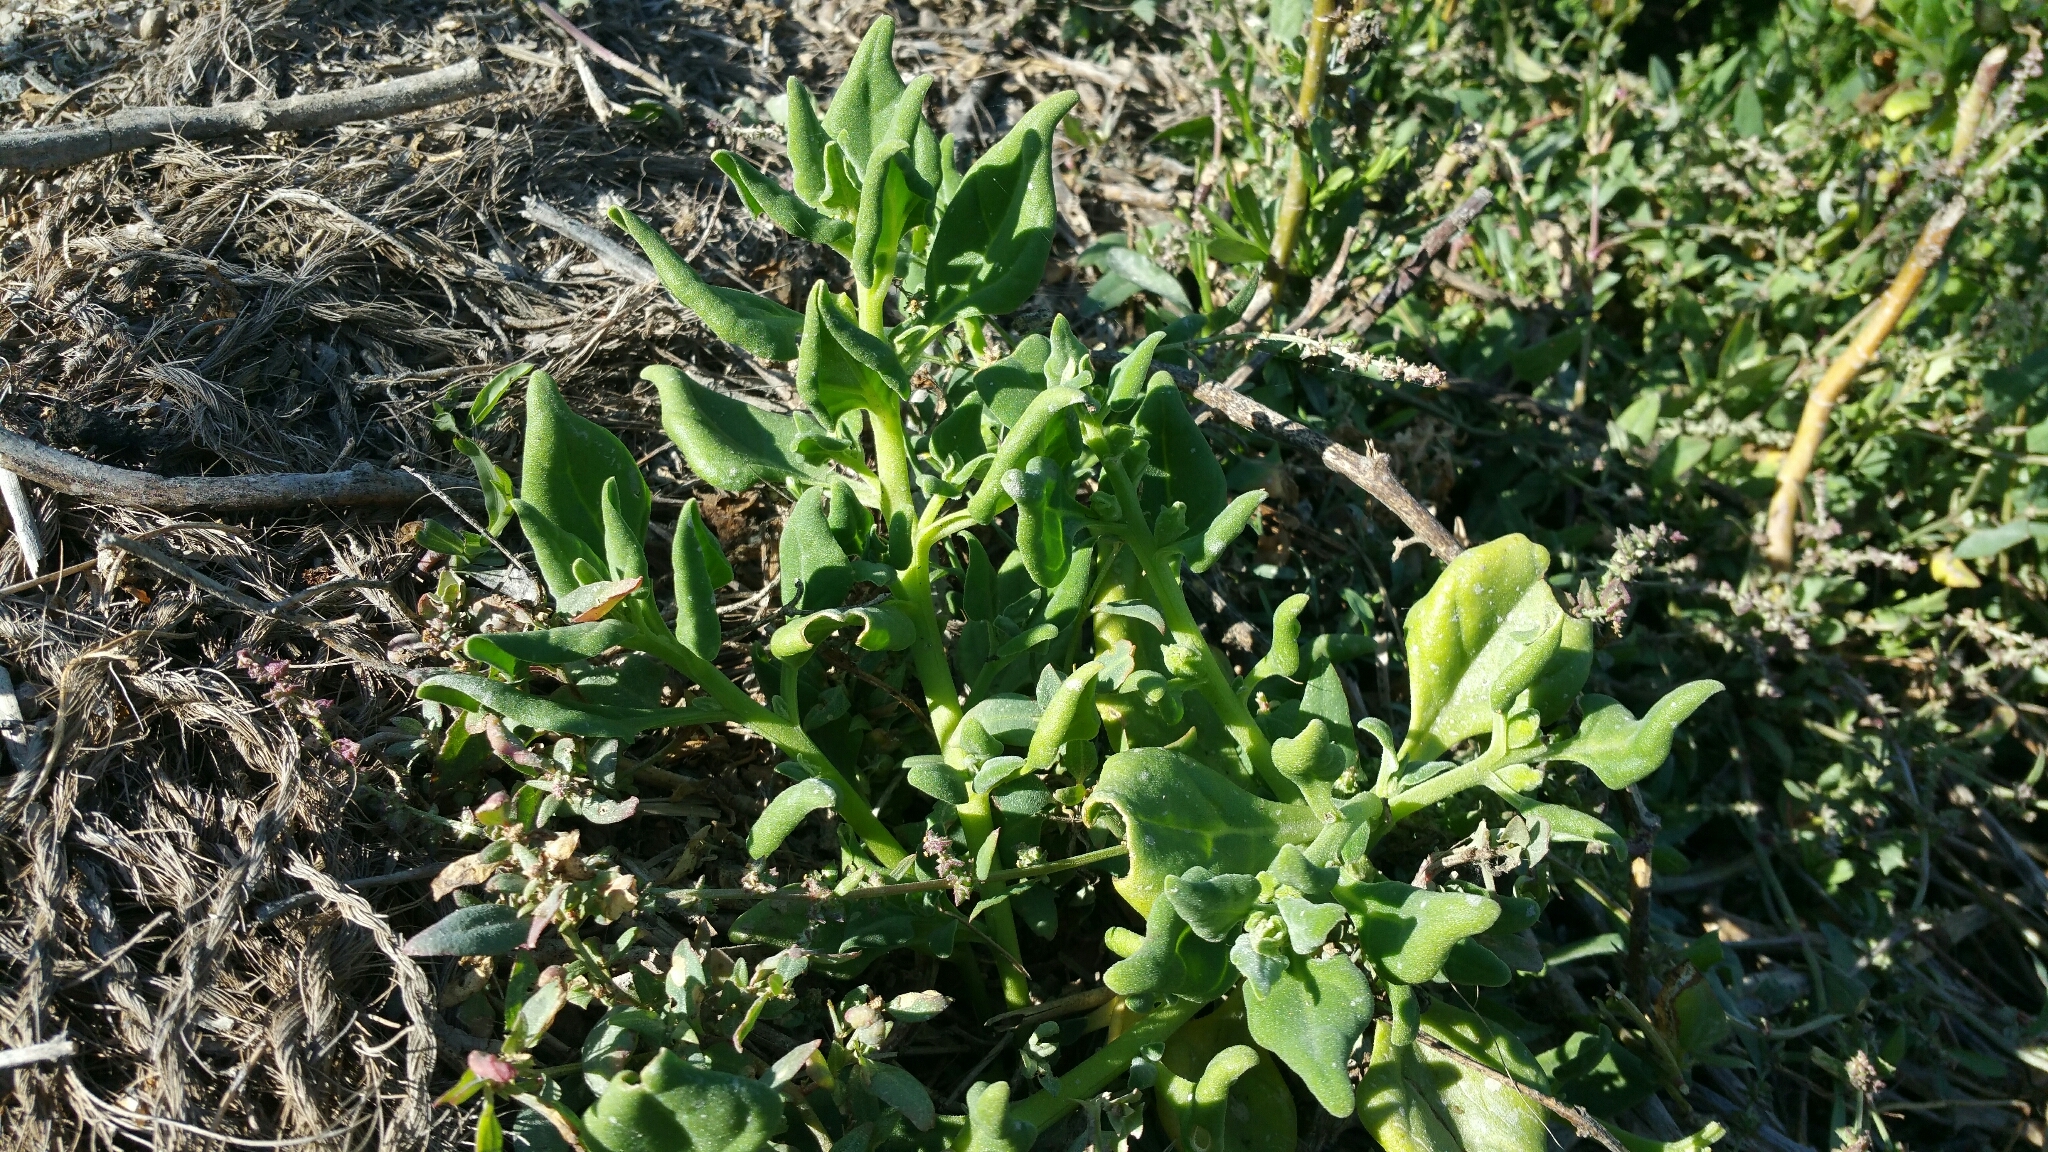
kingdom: Plantae
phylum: Tracheophyta
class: Magnoliopsida
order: Caryophyllales
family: Aizoaceae
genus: Tetragonia
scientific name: Tetragonia tetragonoides
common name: New zealand-spinach
